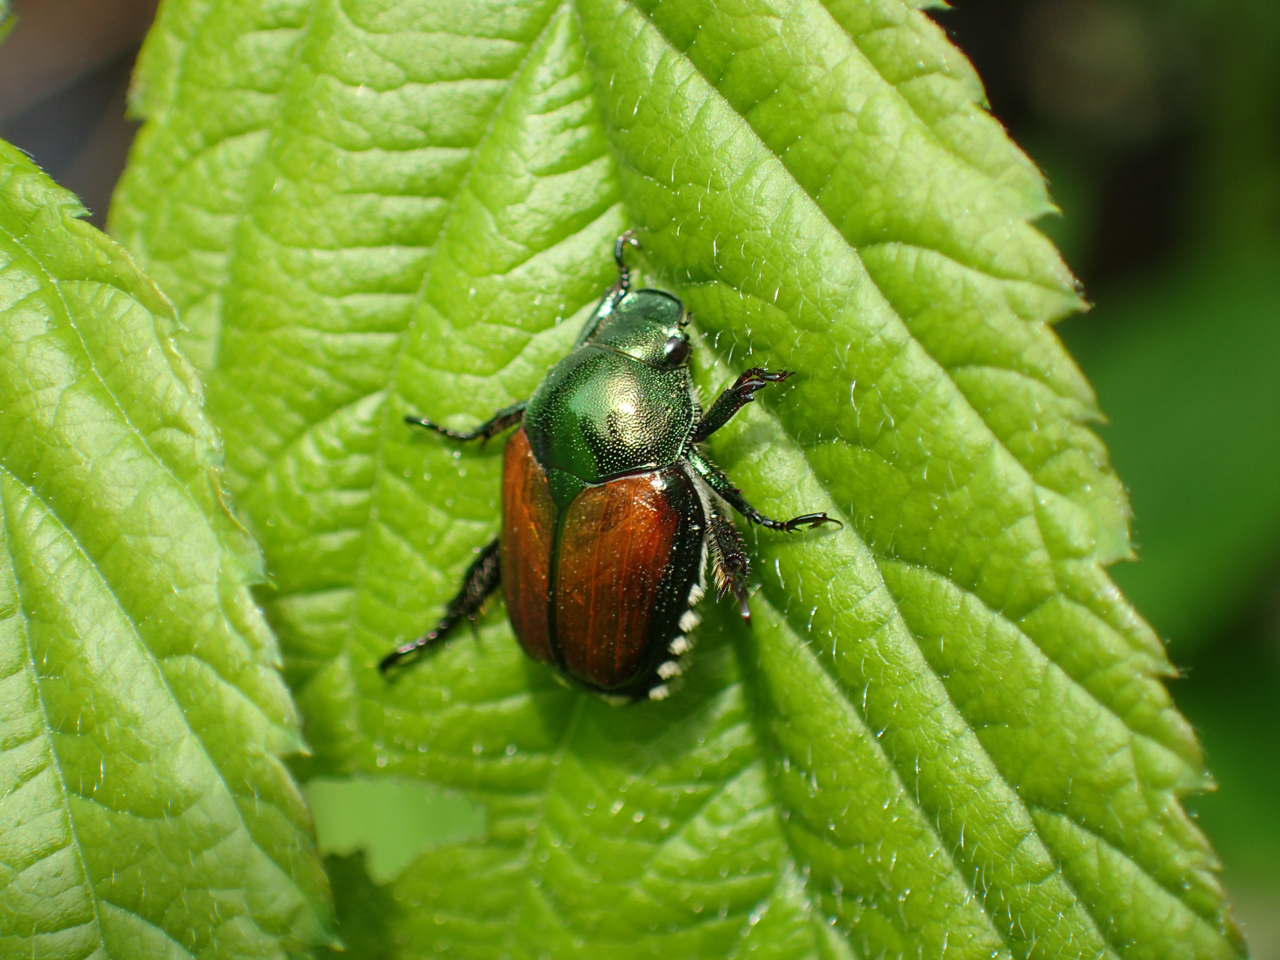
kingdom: Animalia
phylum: Arthropoda
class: Insecta
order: Coleoptera
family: Scarabaeidae
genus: Popillia
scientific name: Popillia japonica
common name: Japanese beetle
